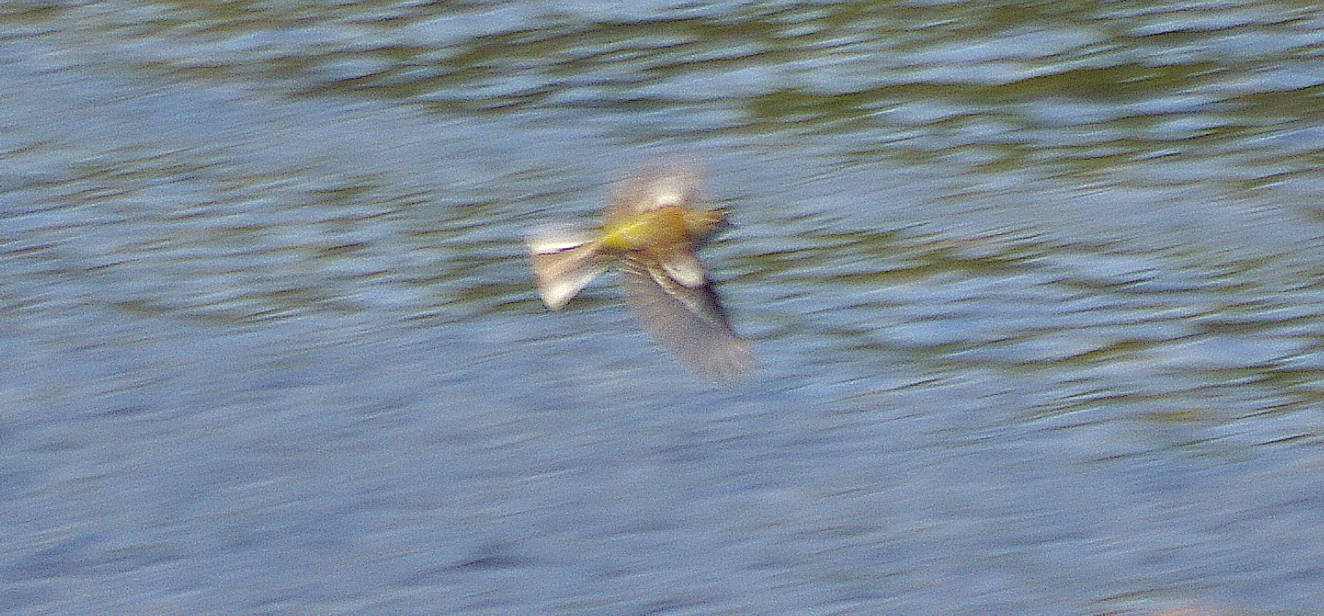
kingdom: Animalia
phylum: Chordata
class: Aves
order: Passeriformes
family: Fringillidae
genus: Fringilla
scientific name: Fringilla coelebs
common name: Common chaffinch
